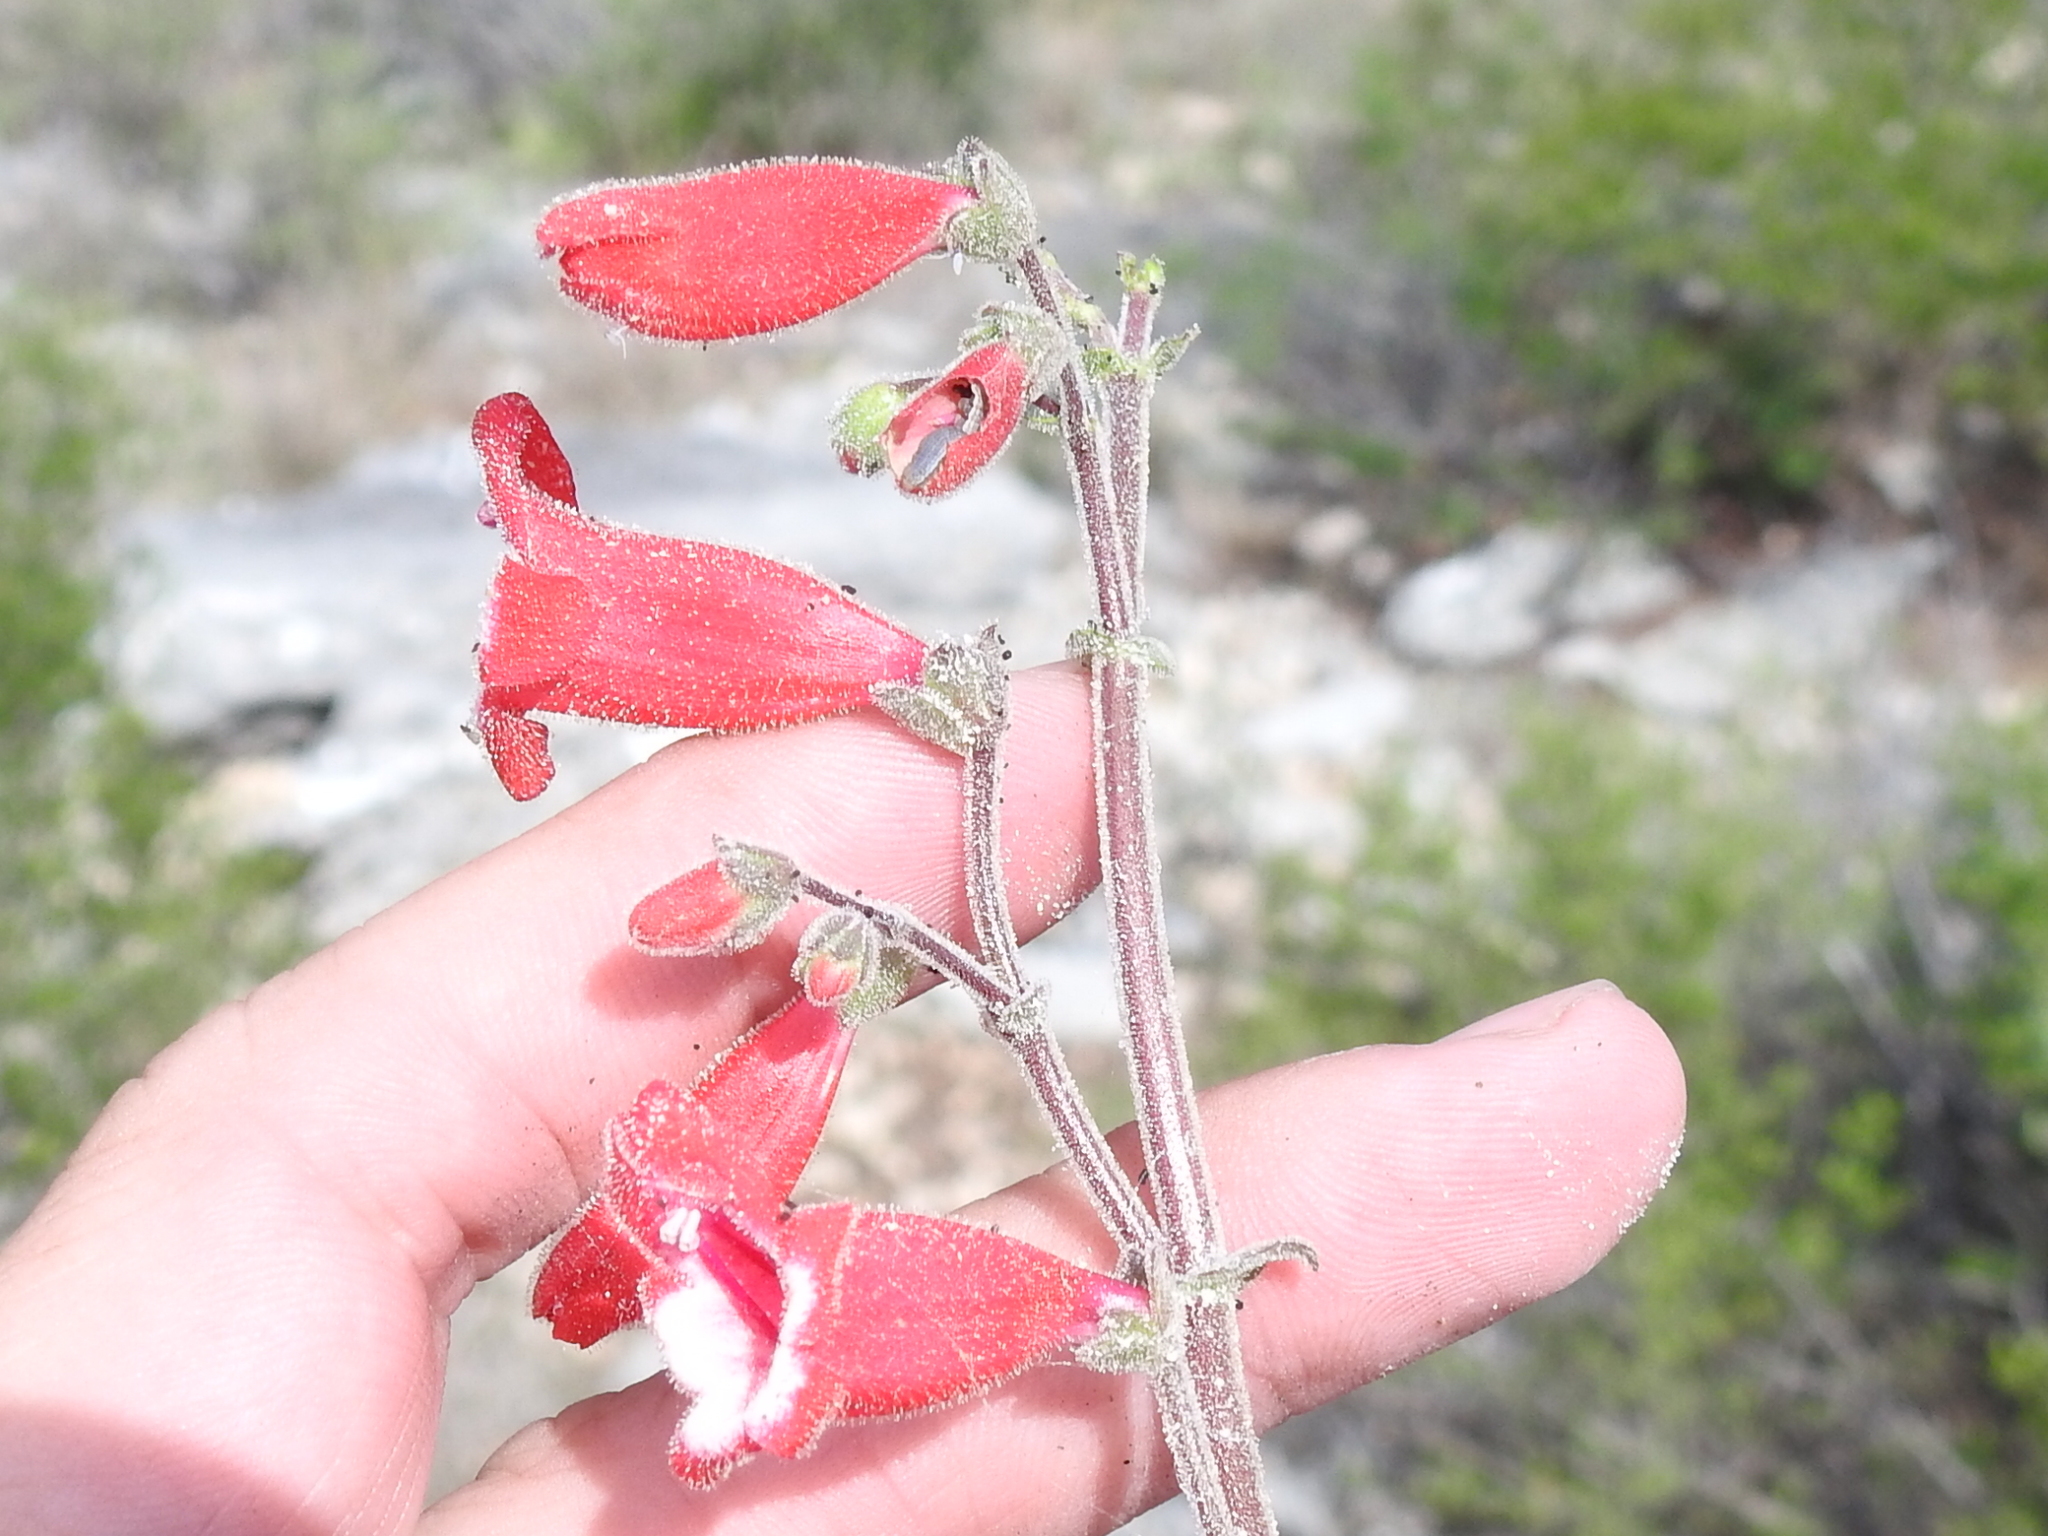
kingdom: Plantae
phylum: Tracheophyta
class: Magnoliopsida
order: Lamiales
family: Plantaginaceae
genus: Penstemon
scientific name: Penstemon baccharifolius
